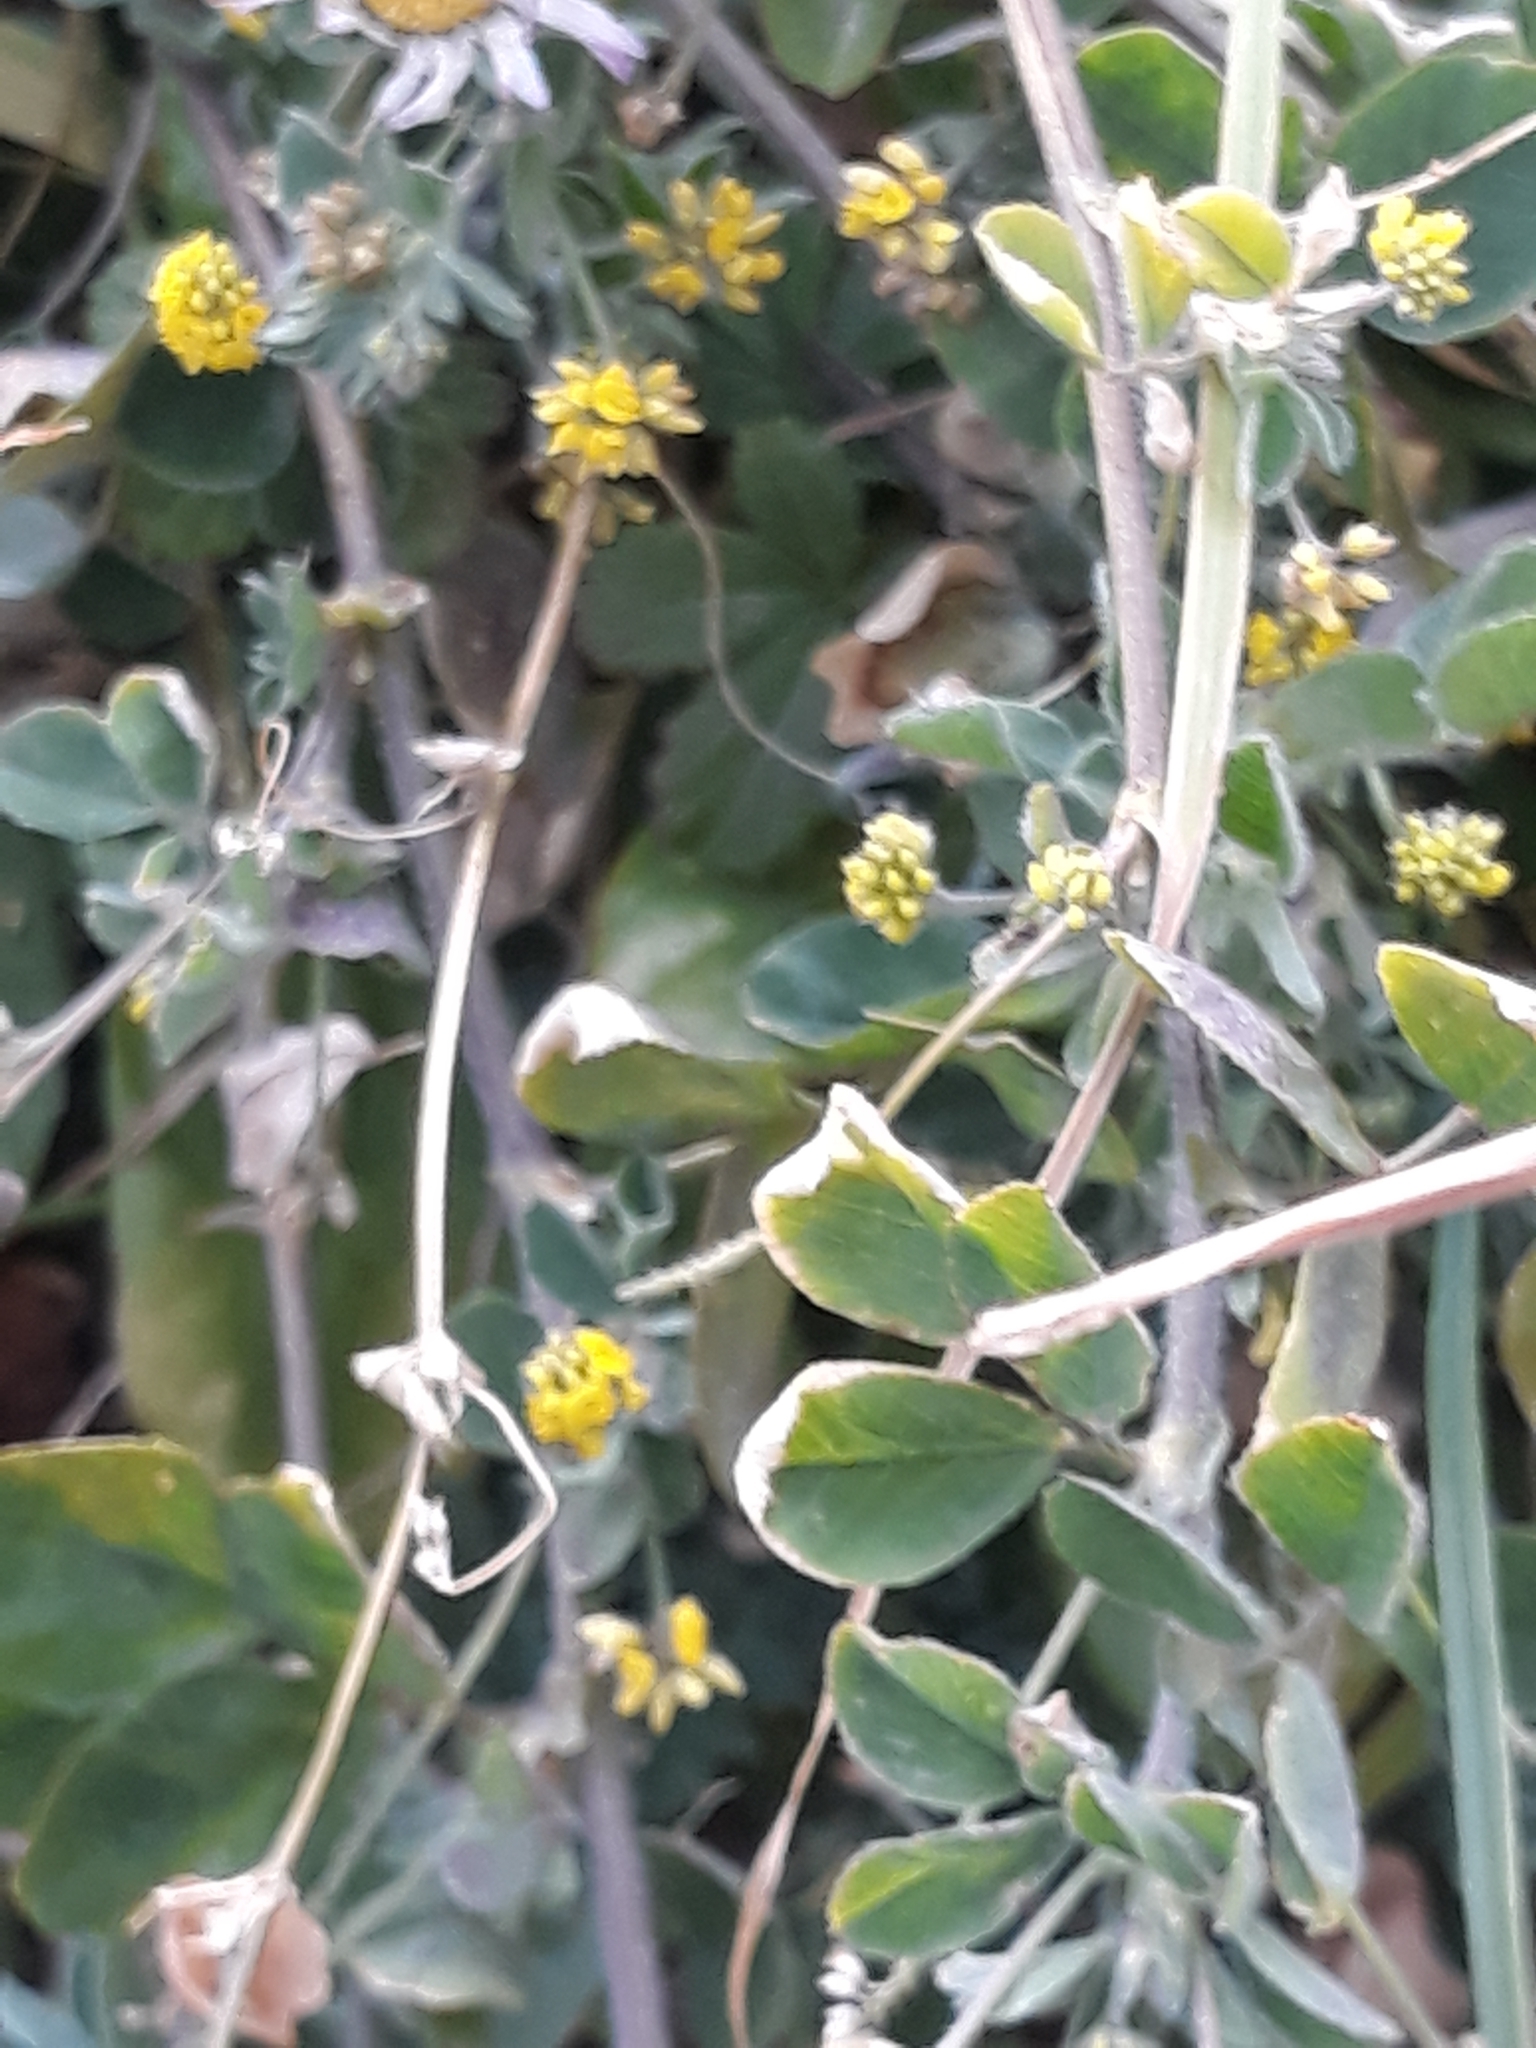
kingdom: Plantae
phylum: Tracheophyta
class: Magnoliopsida
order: Fabales
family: Fabaceae
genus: Medicago
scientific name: Medicago lupulina
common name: Black medick
